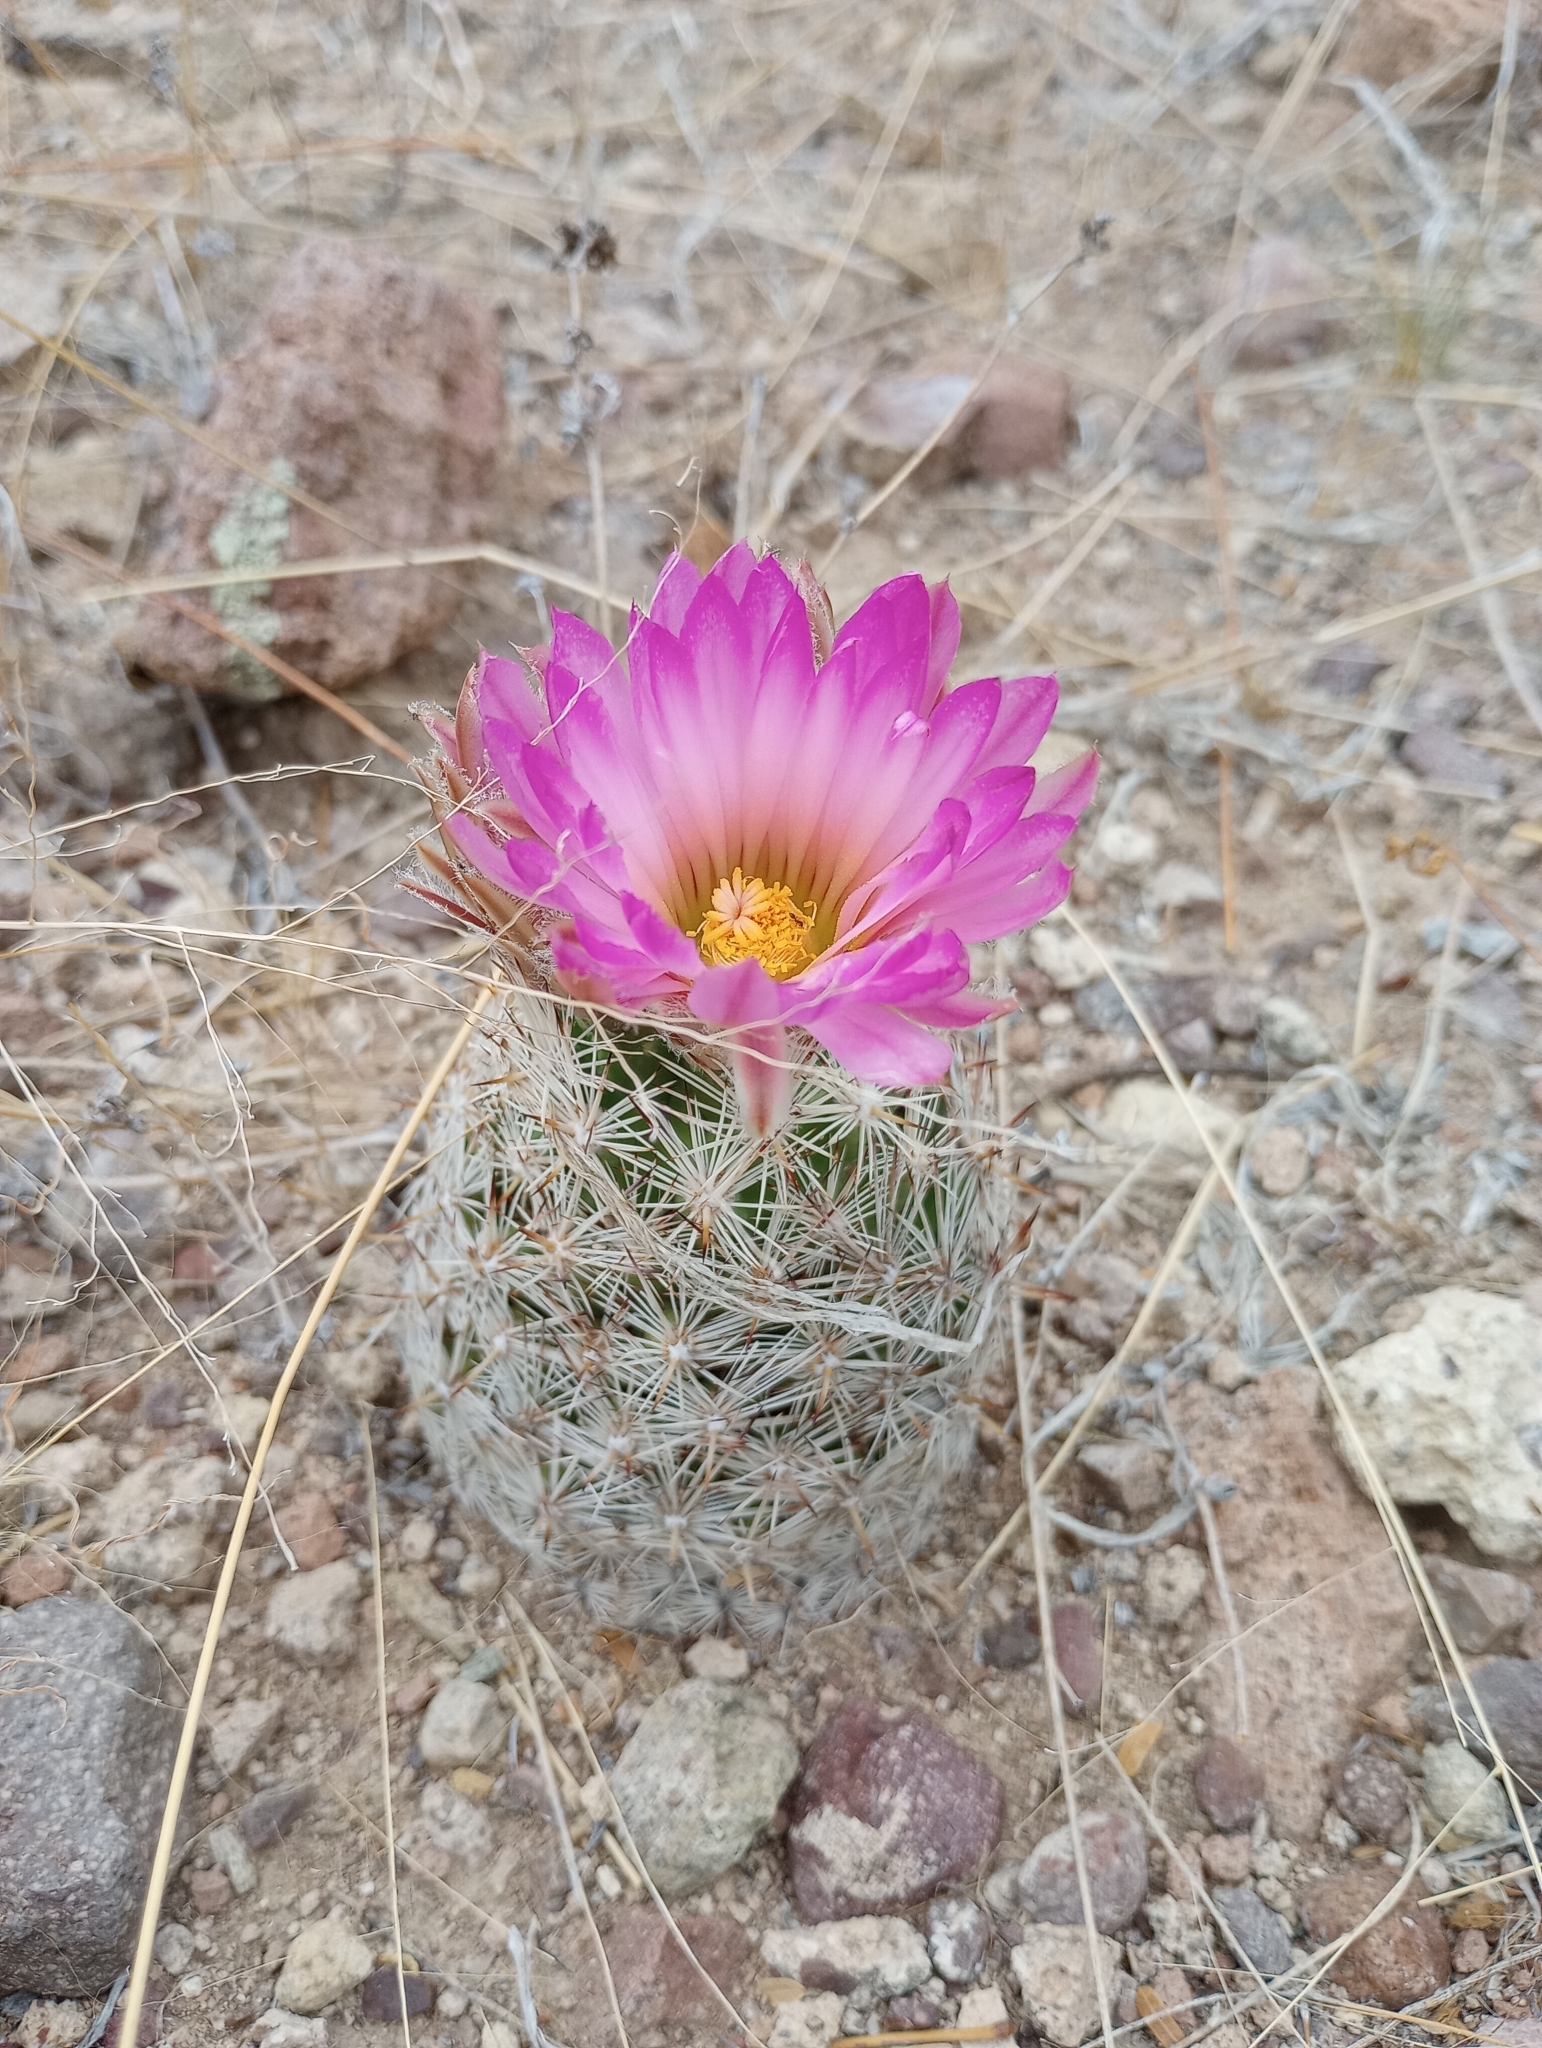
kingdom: Plantae
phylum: Tracheophyta
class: Magnoliopsida
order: Caryophyllales
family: Cactaceae
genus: Pelecyphora
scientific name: Pelecyphora vivipara
